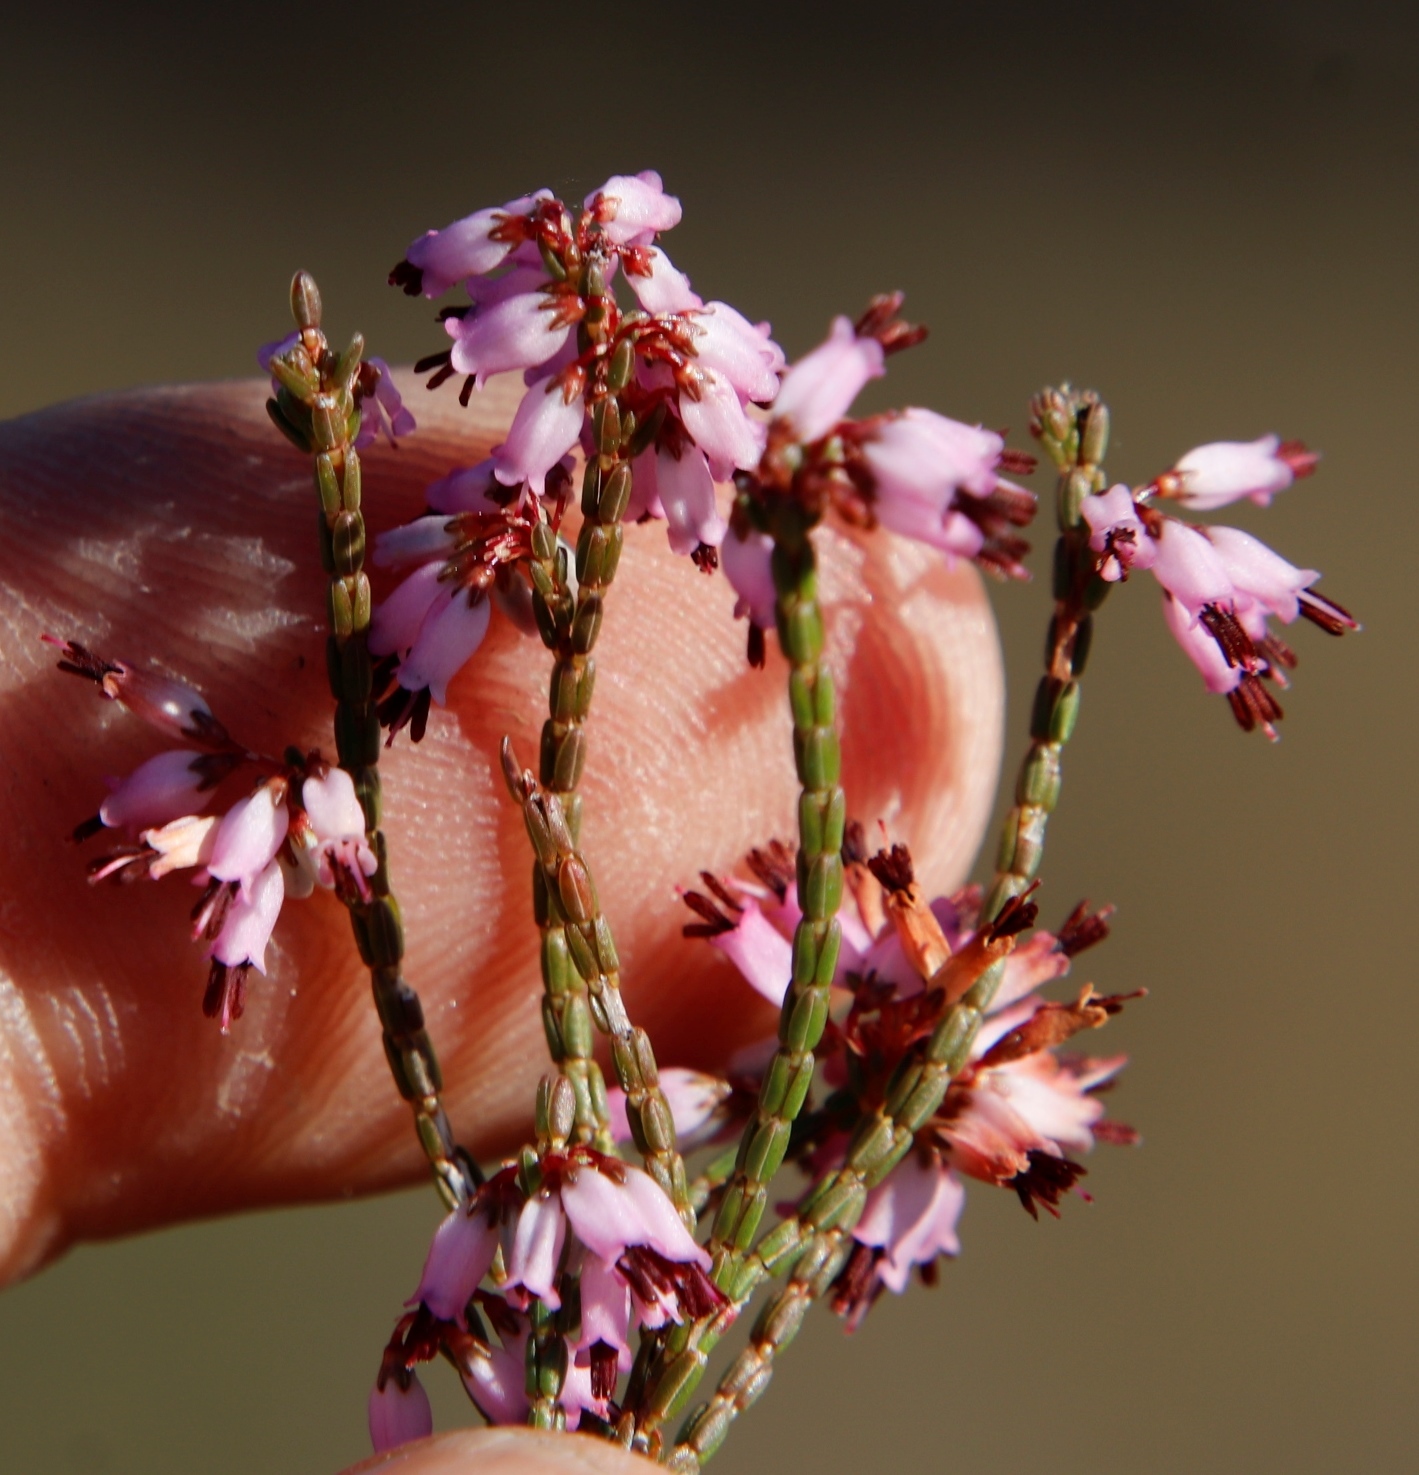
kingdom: Plantae
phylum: Tracheophyta
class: Magnoliopsida
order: Ericales
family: Ericaceae
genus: Erica
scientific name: Erica equisetifolia
